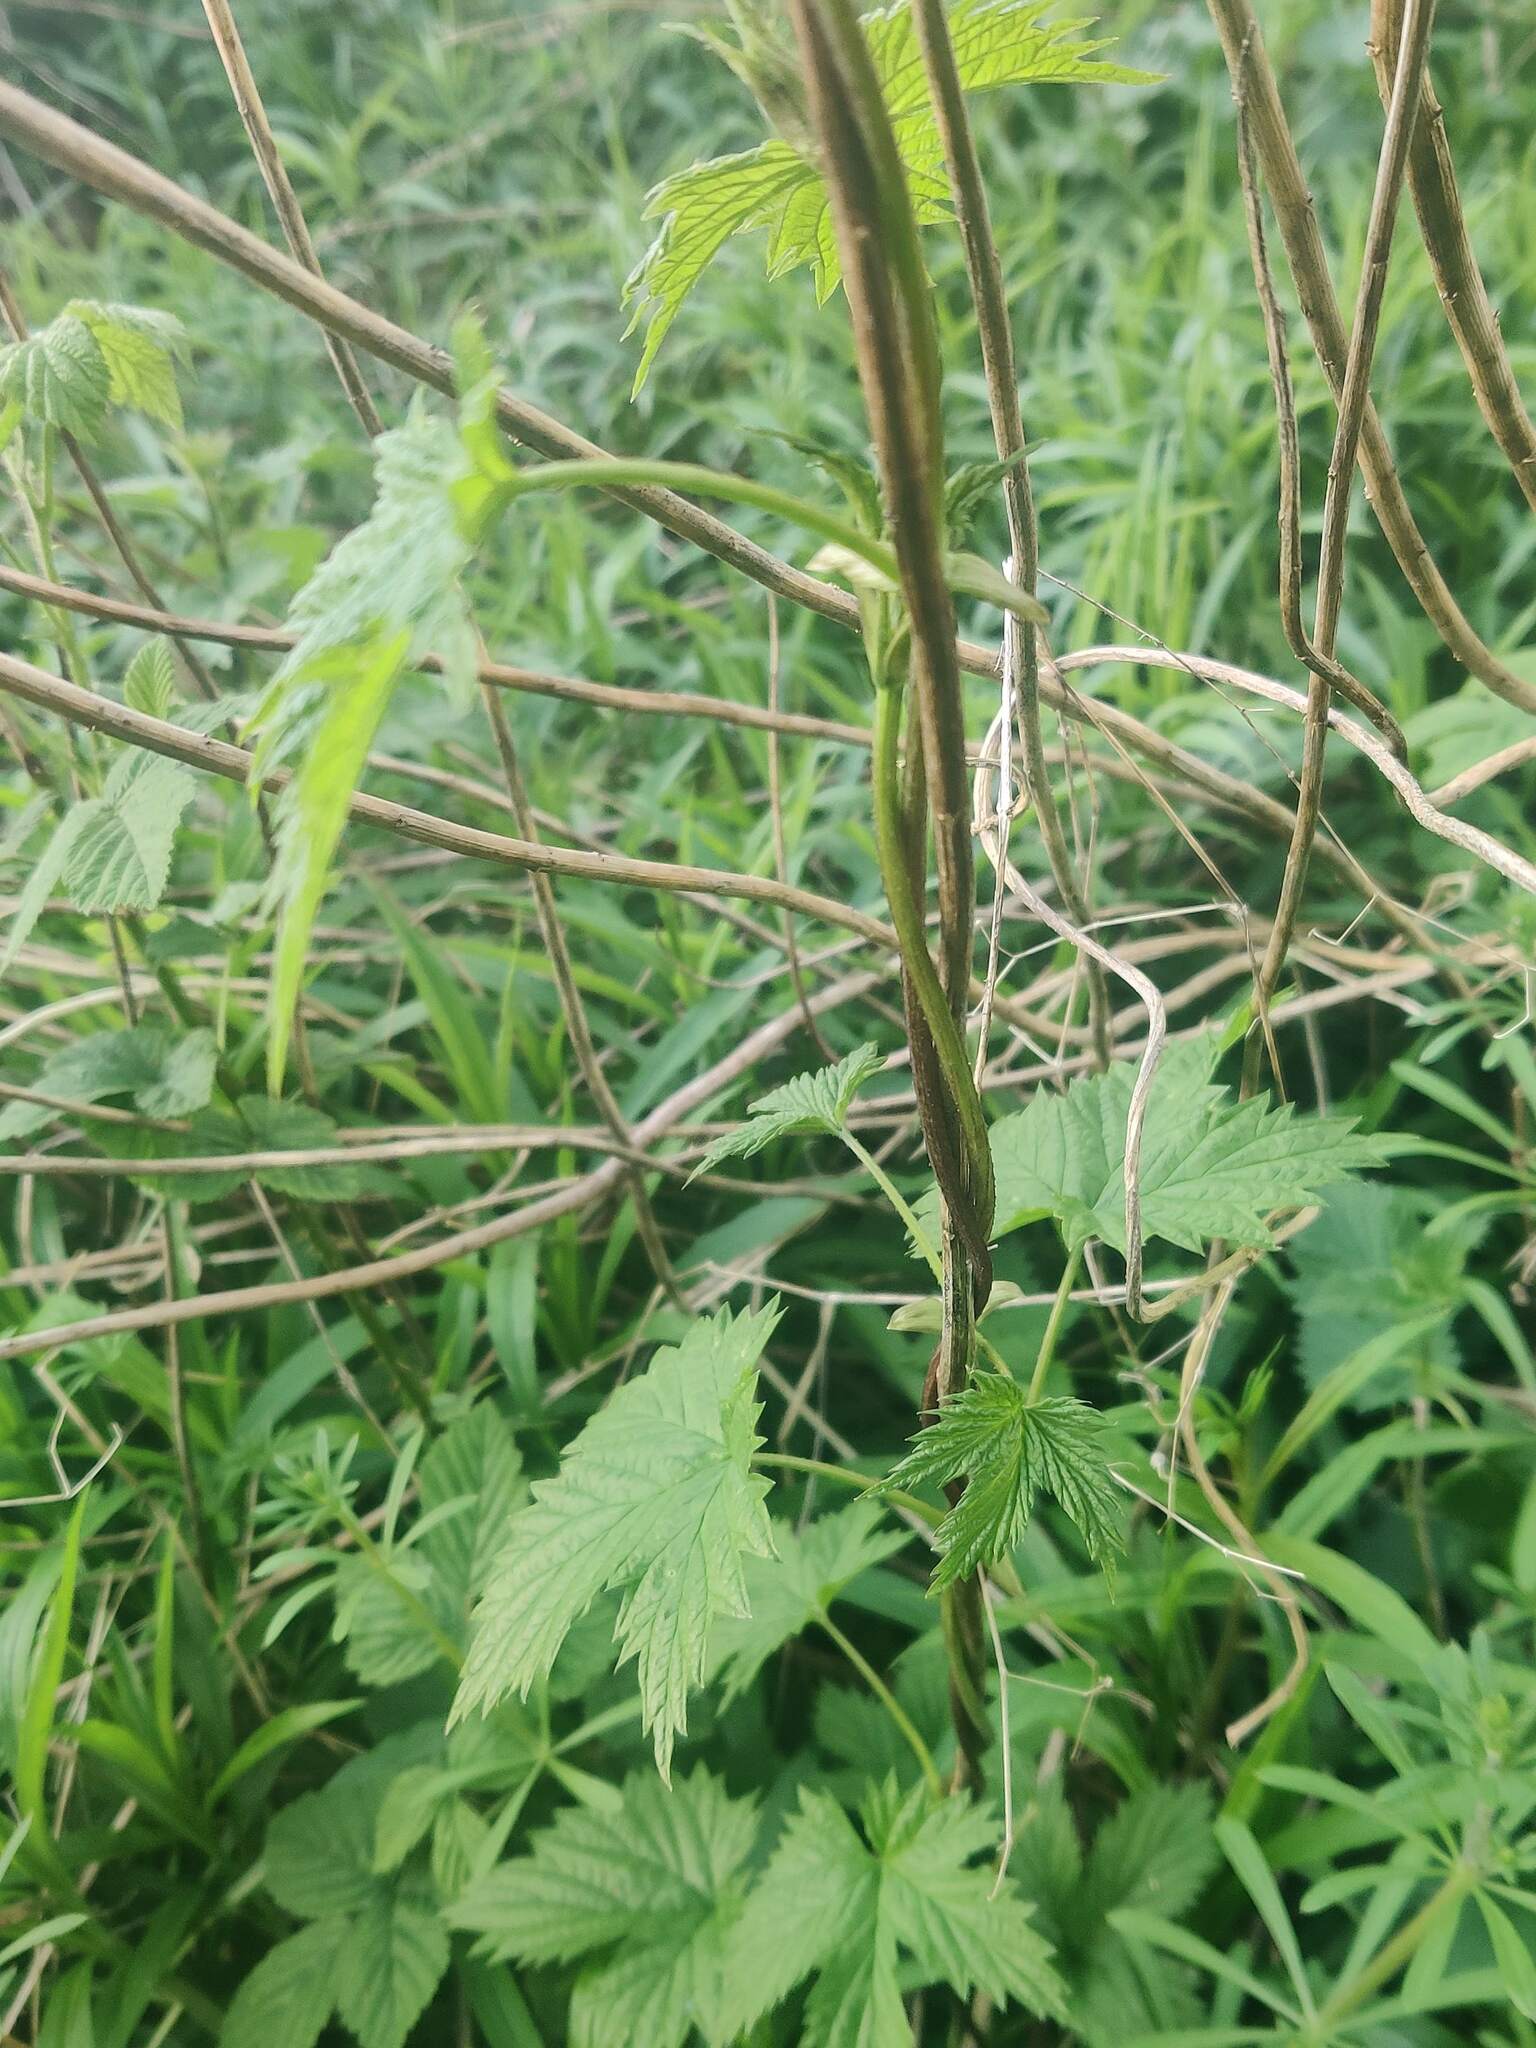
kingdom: Plantae
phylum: Tracheophyta
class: Magnoliopsida
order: Rosales
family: Cannabaceae
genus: Humulus
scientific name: Humulus lupulus
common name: Hop
